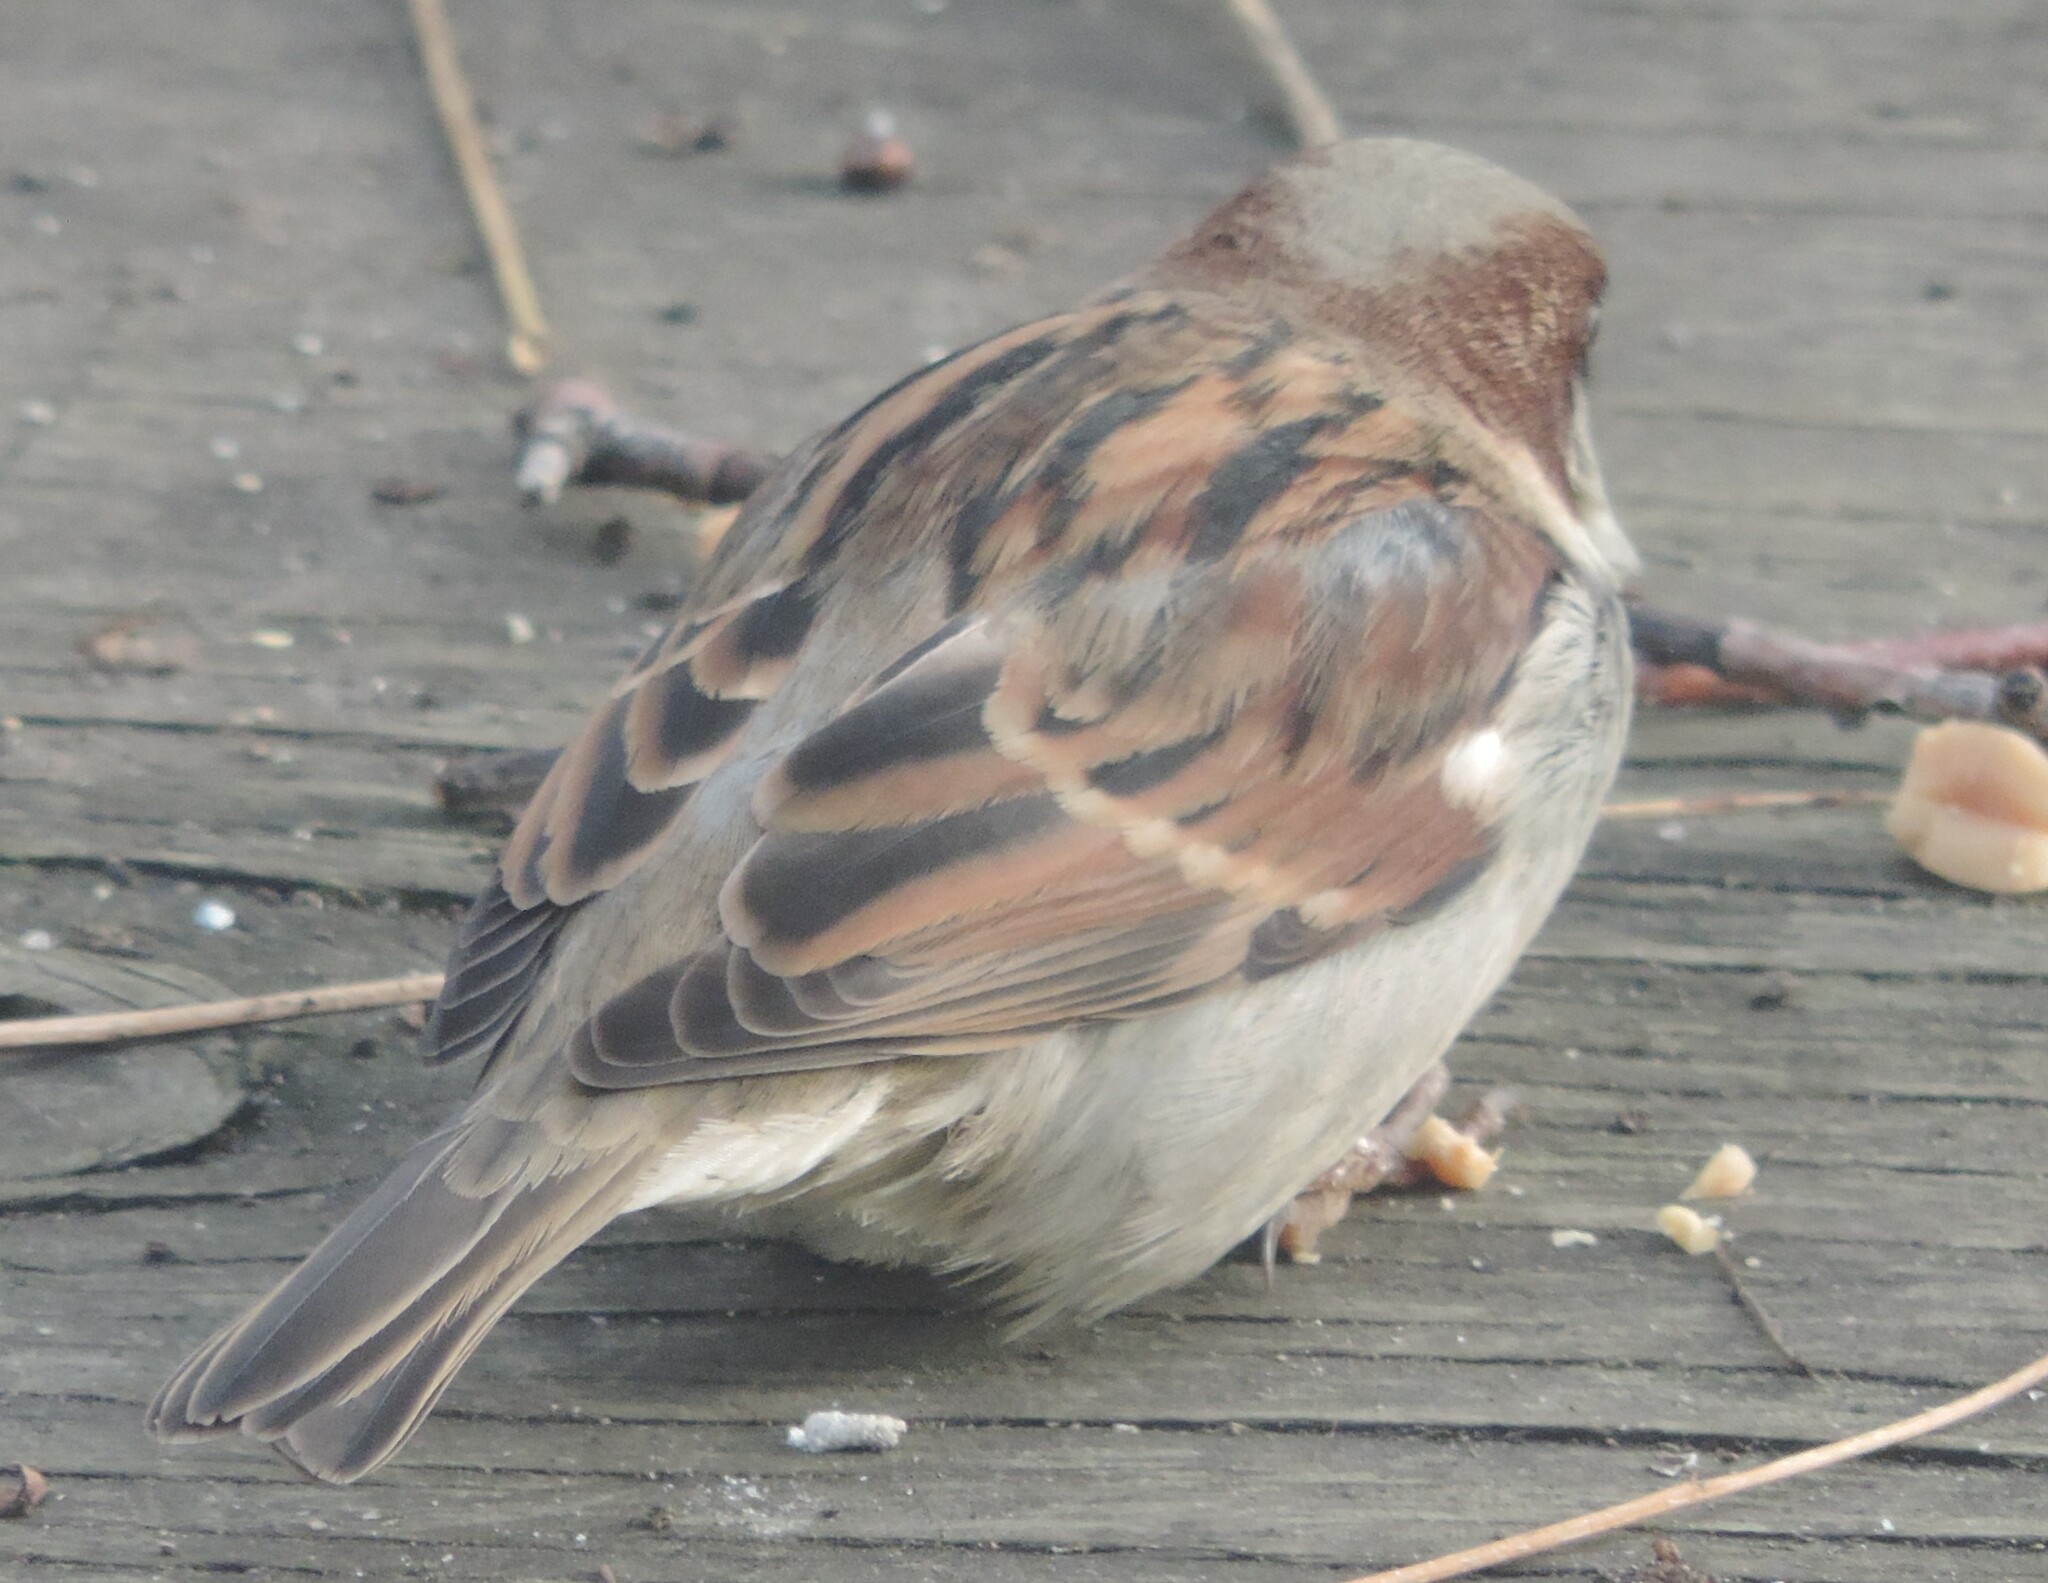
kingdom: Animalia
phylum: Chordata
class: Aves
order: Passeriformes
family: Passeridae
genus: Passer
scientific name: Passer domesticus
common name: House sparrow
